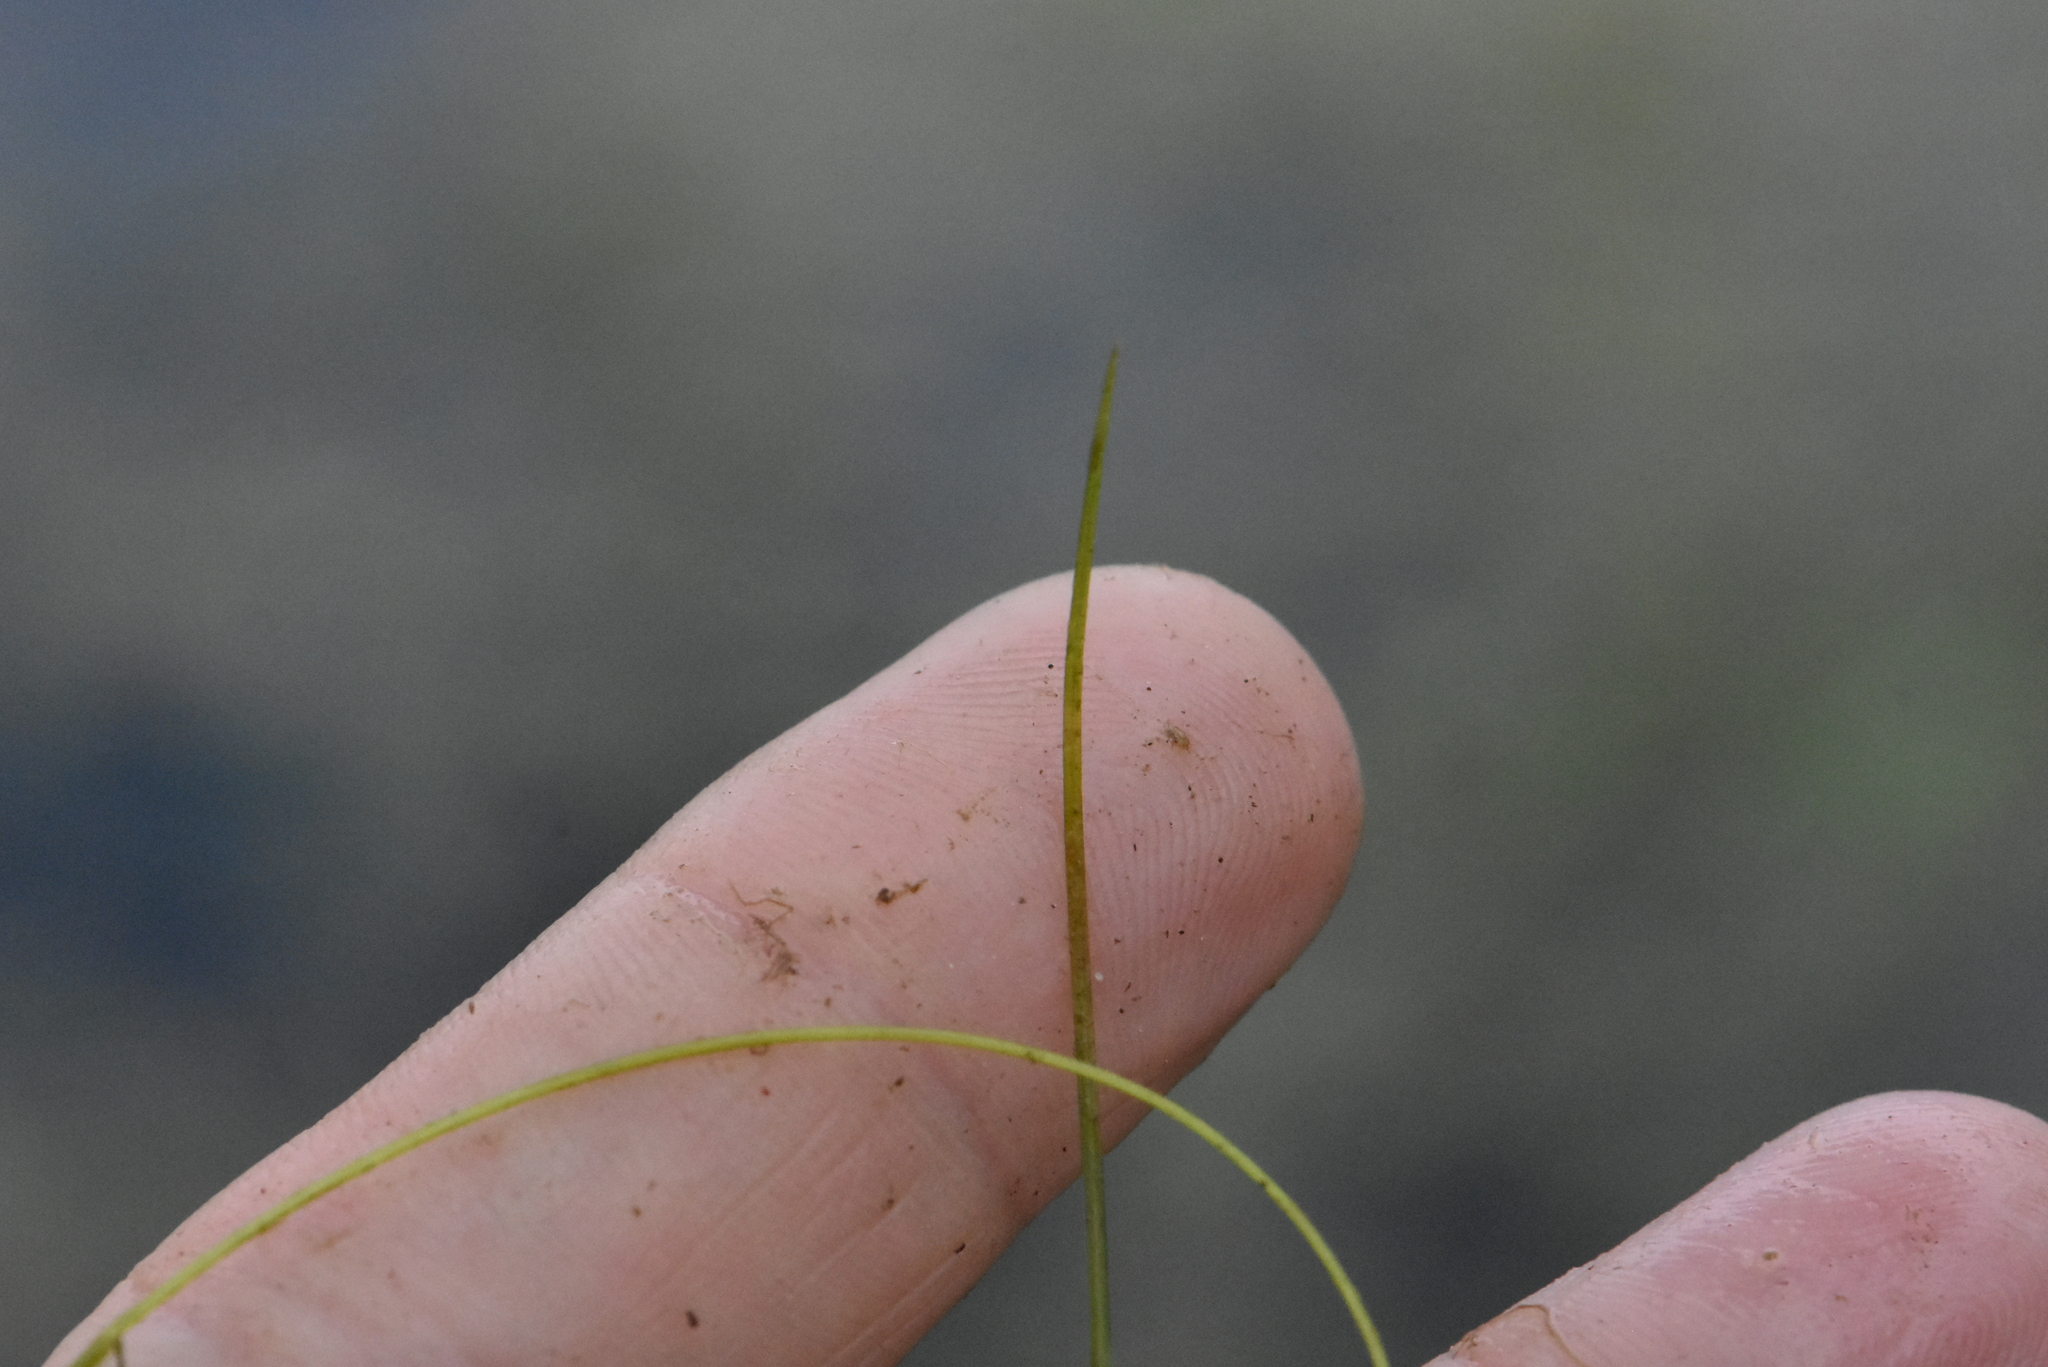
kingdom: Plantae
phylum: Tracheophyta
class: Liliopsida
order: Alismatales
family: Potamogetonaceae
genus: Potamogeton
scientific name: Potamogeton trichoides
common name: Hairlike pondweed
